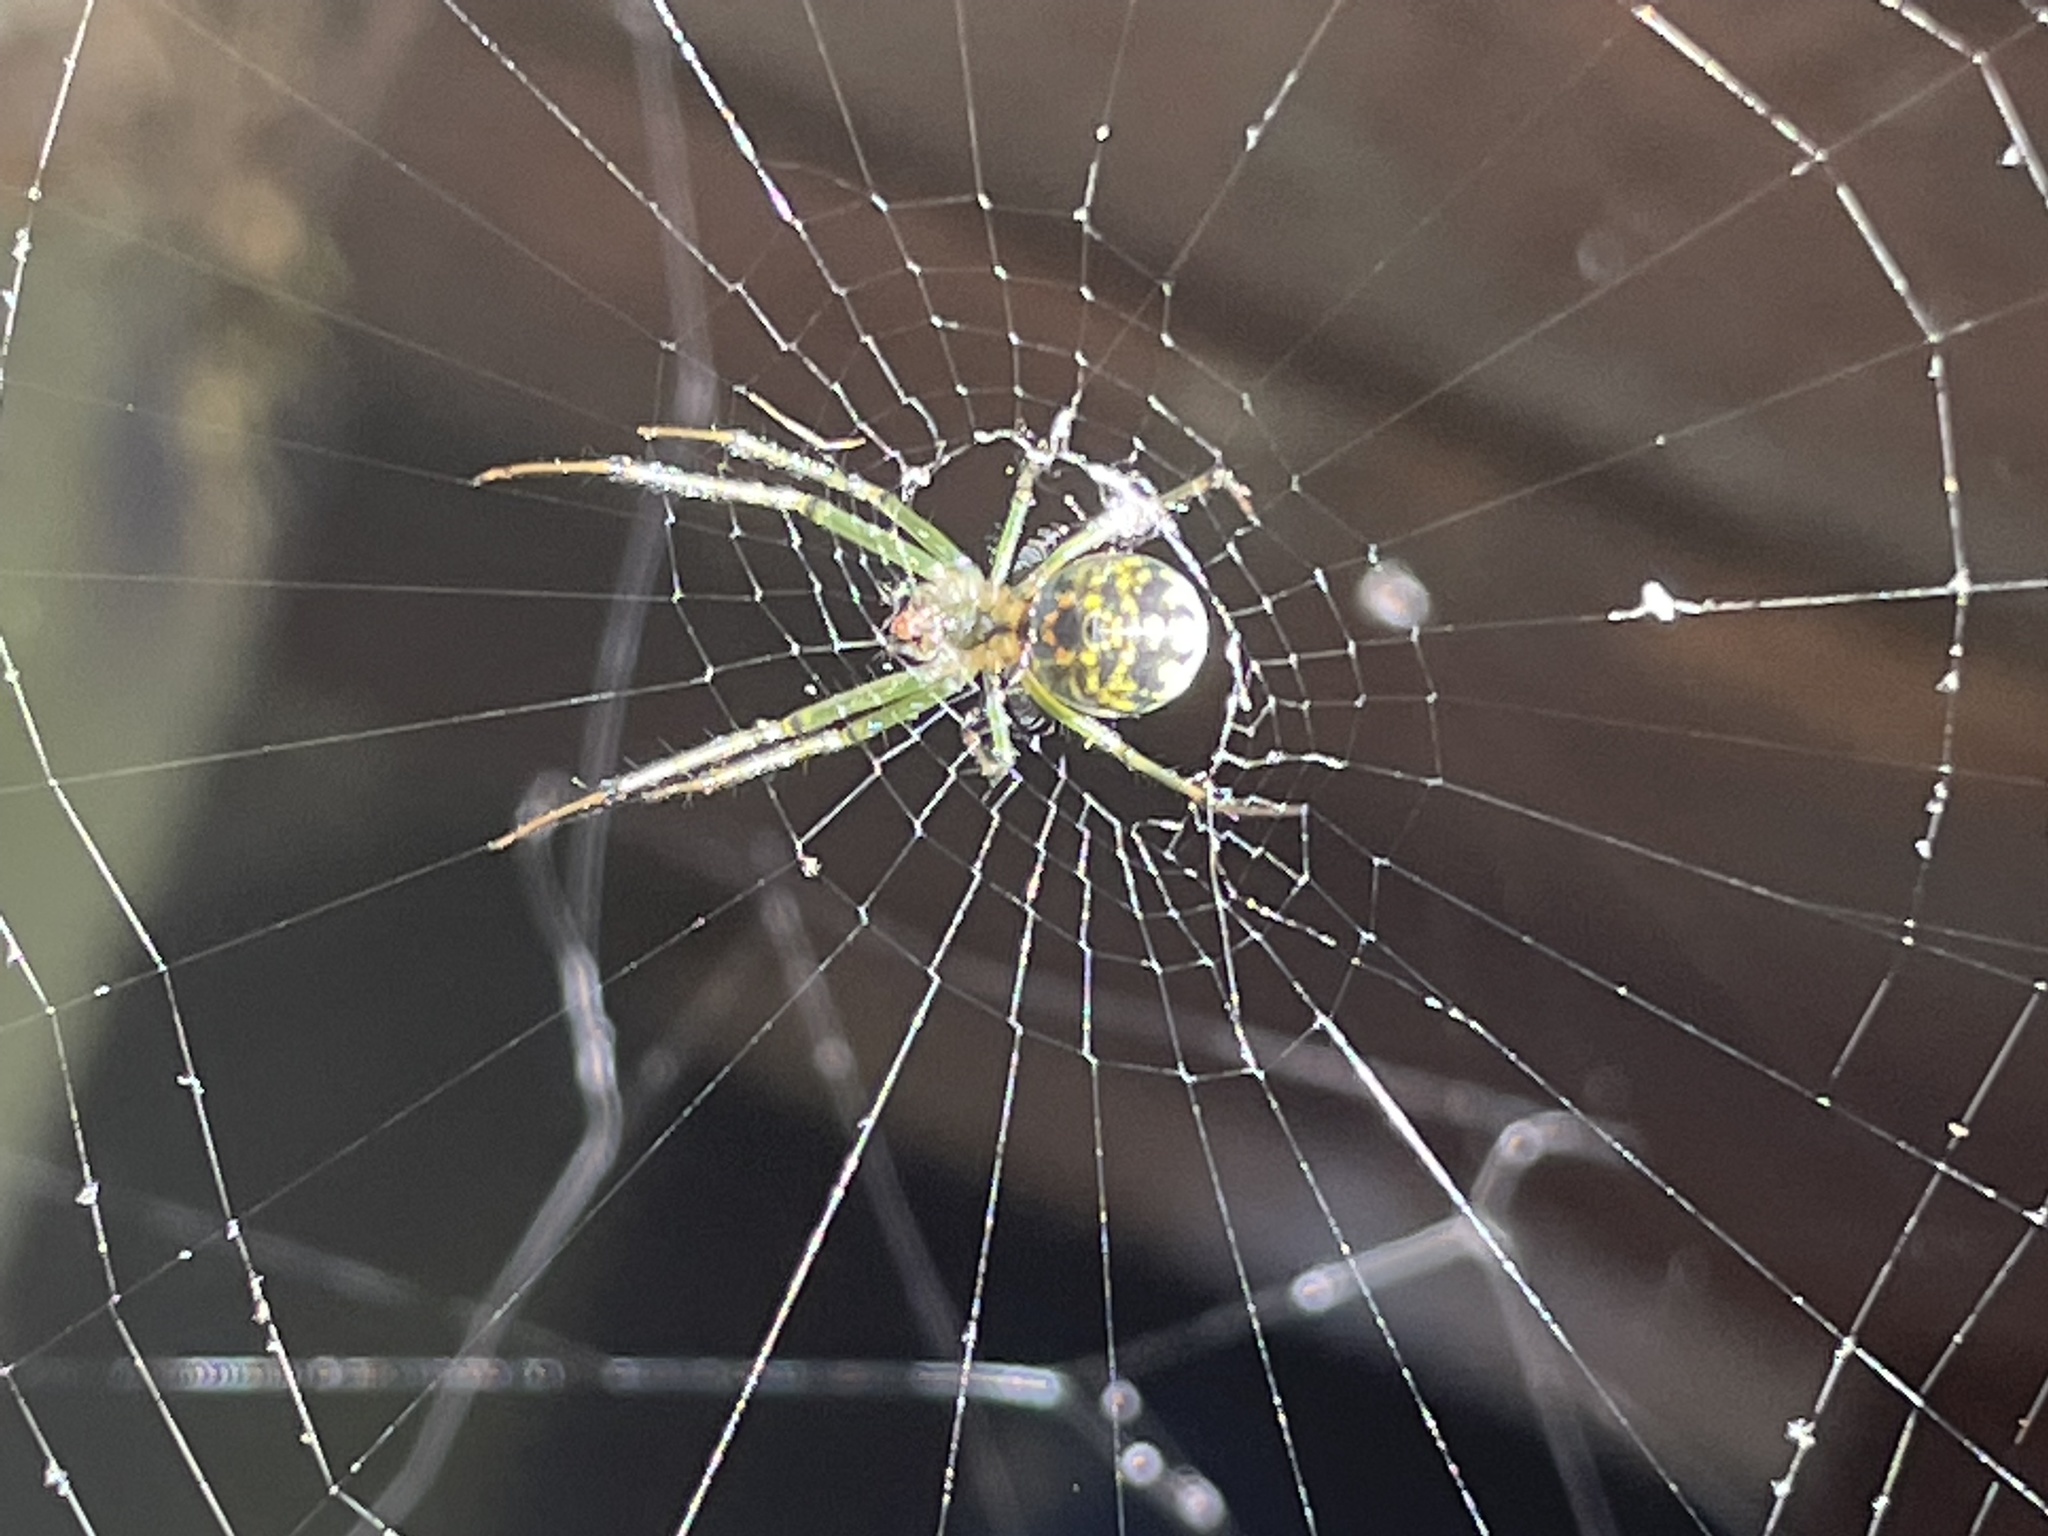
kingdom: Animalia
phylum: Arthropoda
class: Arachnida
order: Araneae
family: Tetragnathidae
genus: Leucauge
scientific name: Leucauge venusta
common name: Longjawed orb weavers
